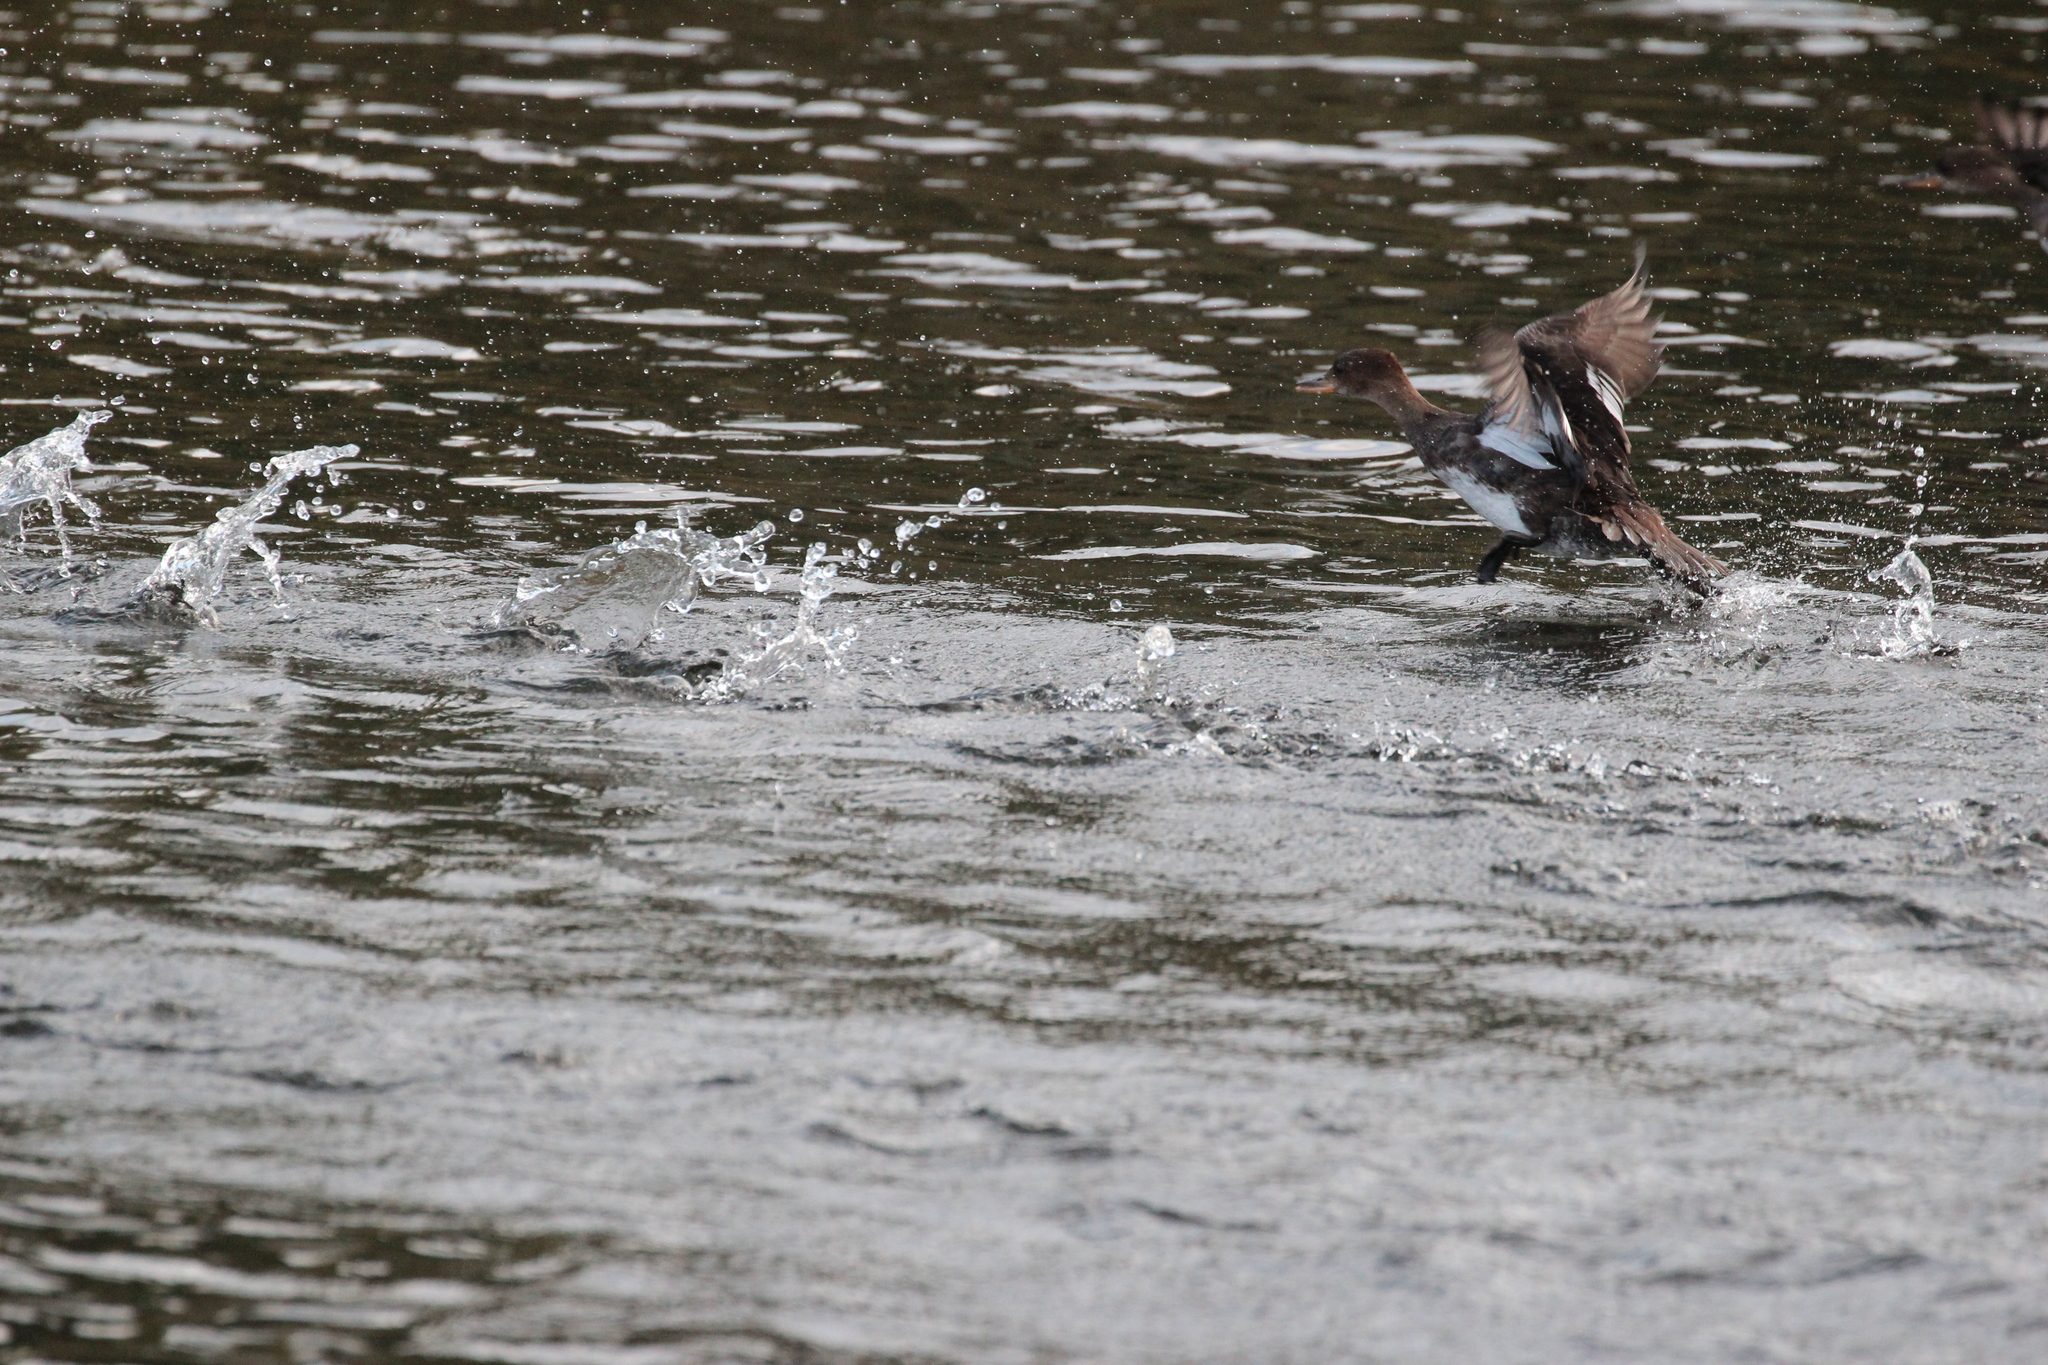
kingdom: Animalia
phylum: Chordata
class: Aves
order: Anseriformes
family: Anatidae
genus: Lophodytes
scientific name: Lophodytes cucullatus
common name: Hooded merganser
